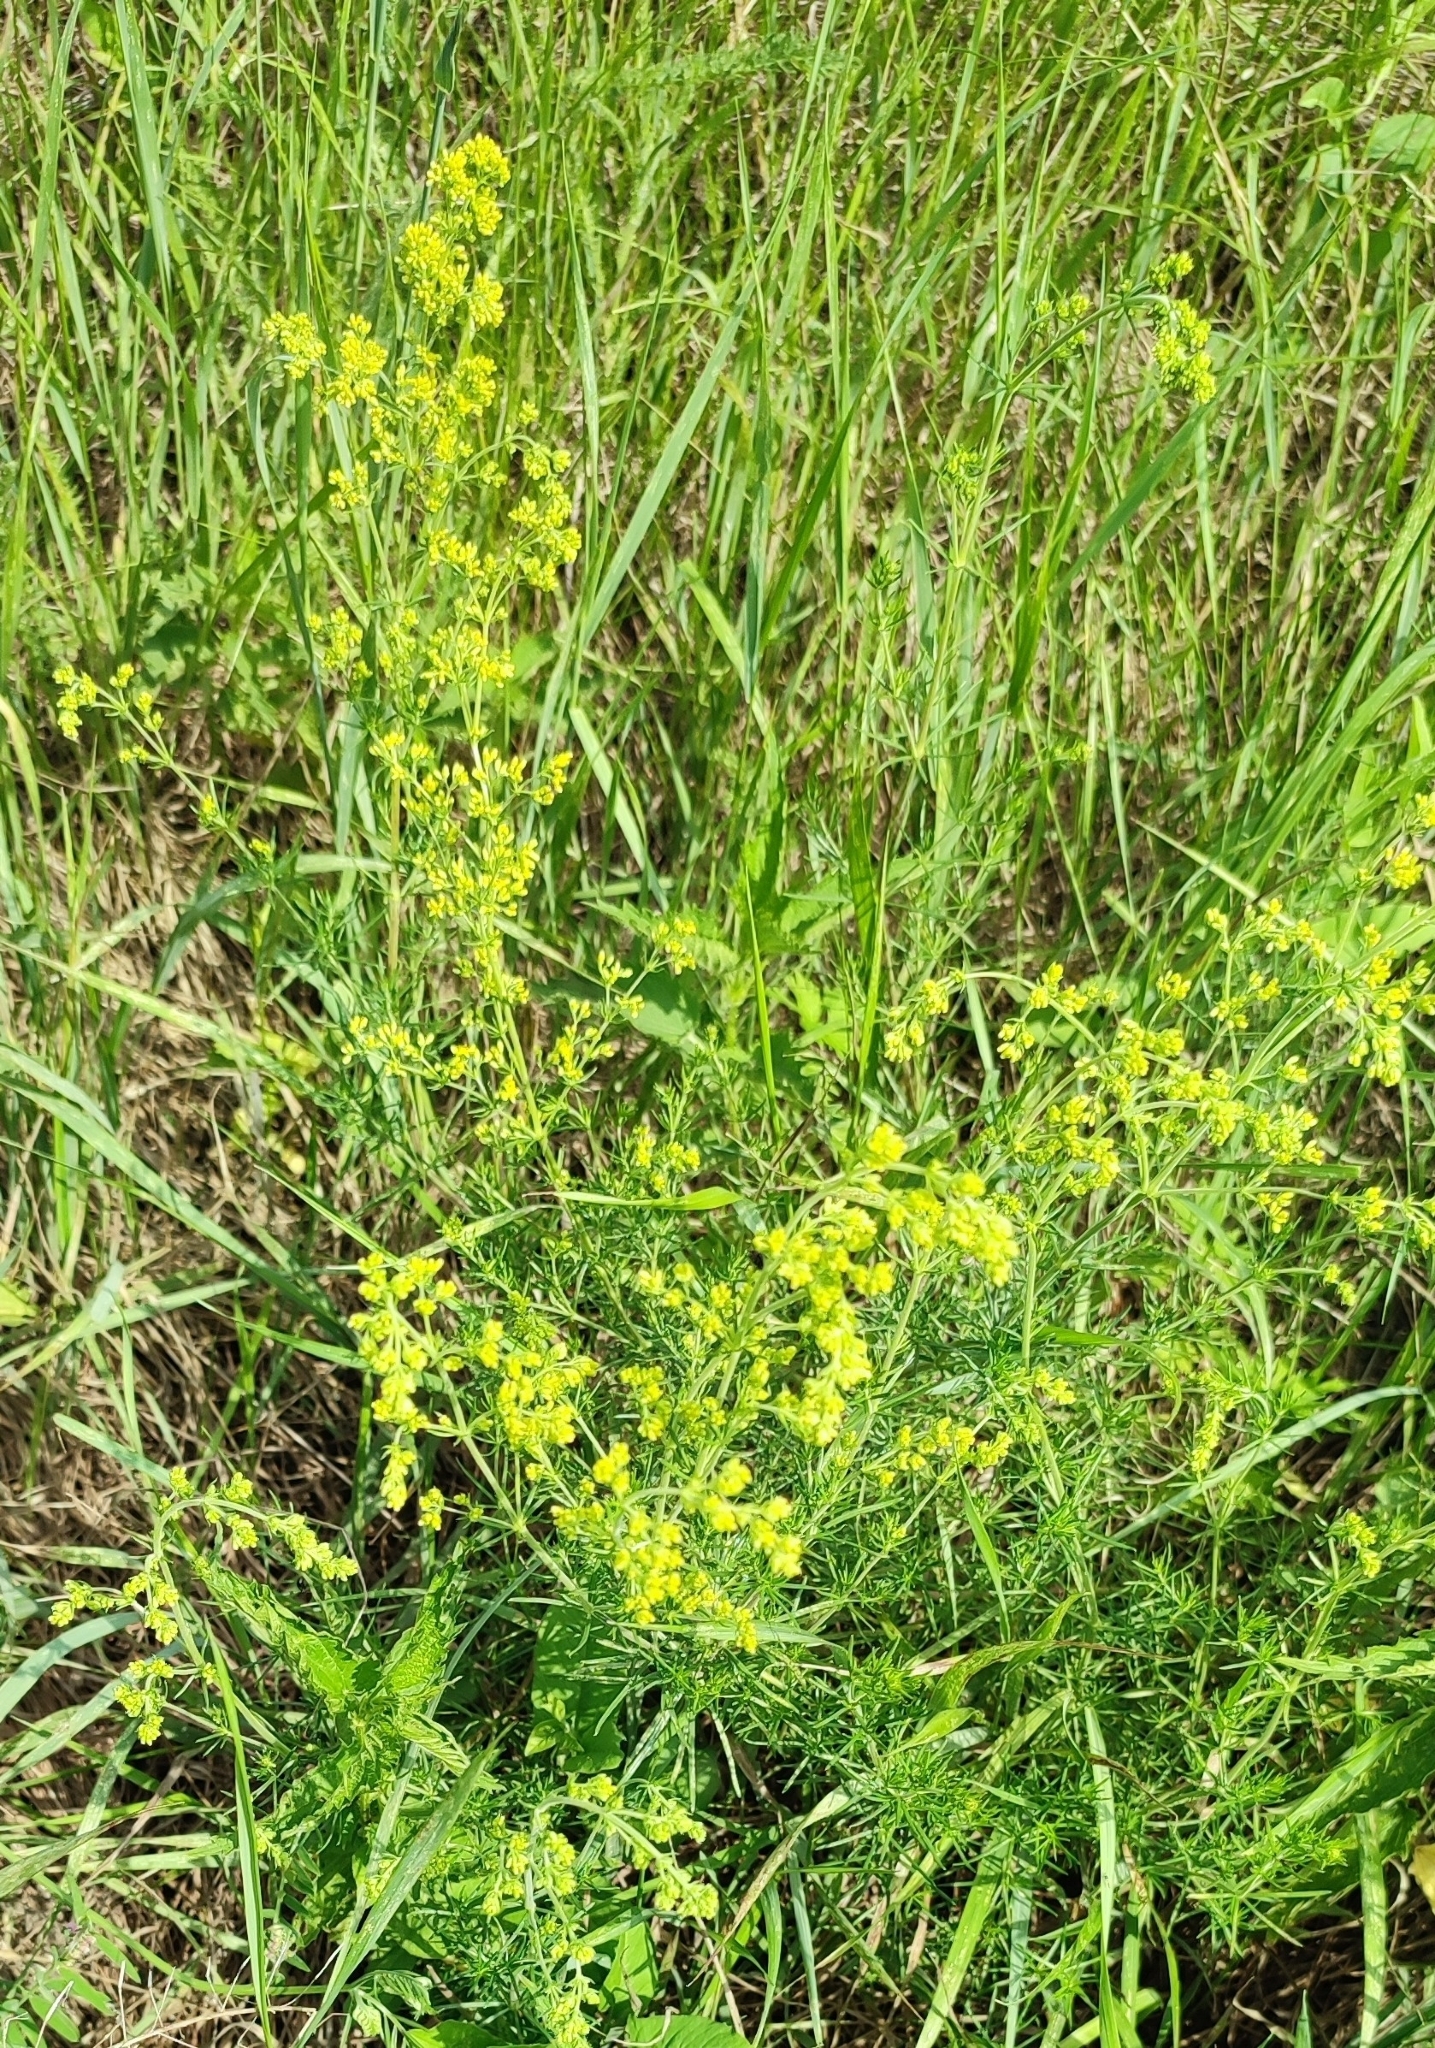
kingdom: Plantae
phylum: Tracheophyta
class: Magnoliopsida
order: Gentianales
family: Rubiaceae
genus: Galium
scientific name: Galium verum
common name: Lady's bedstraw
